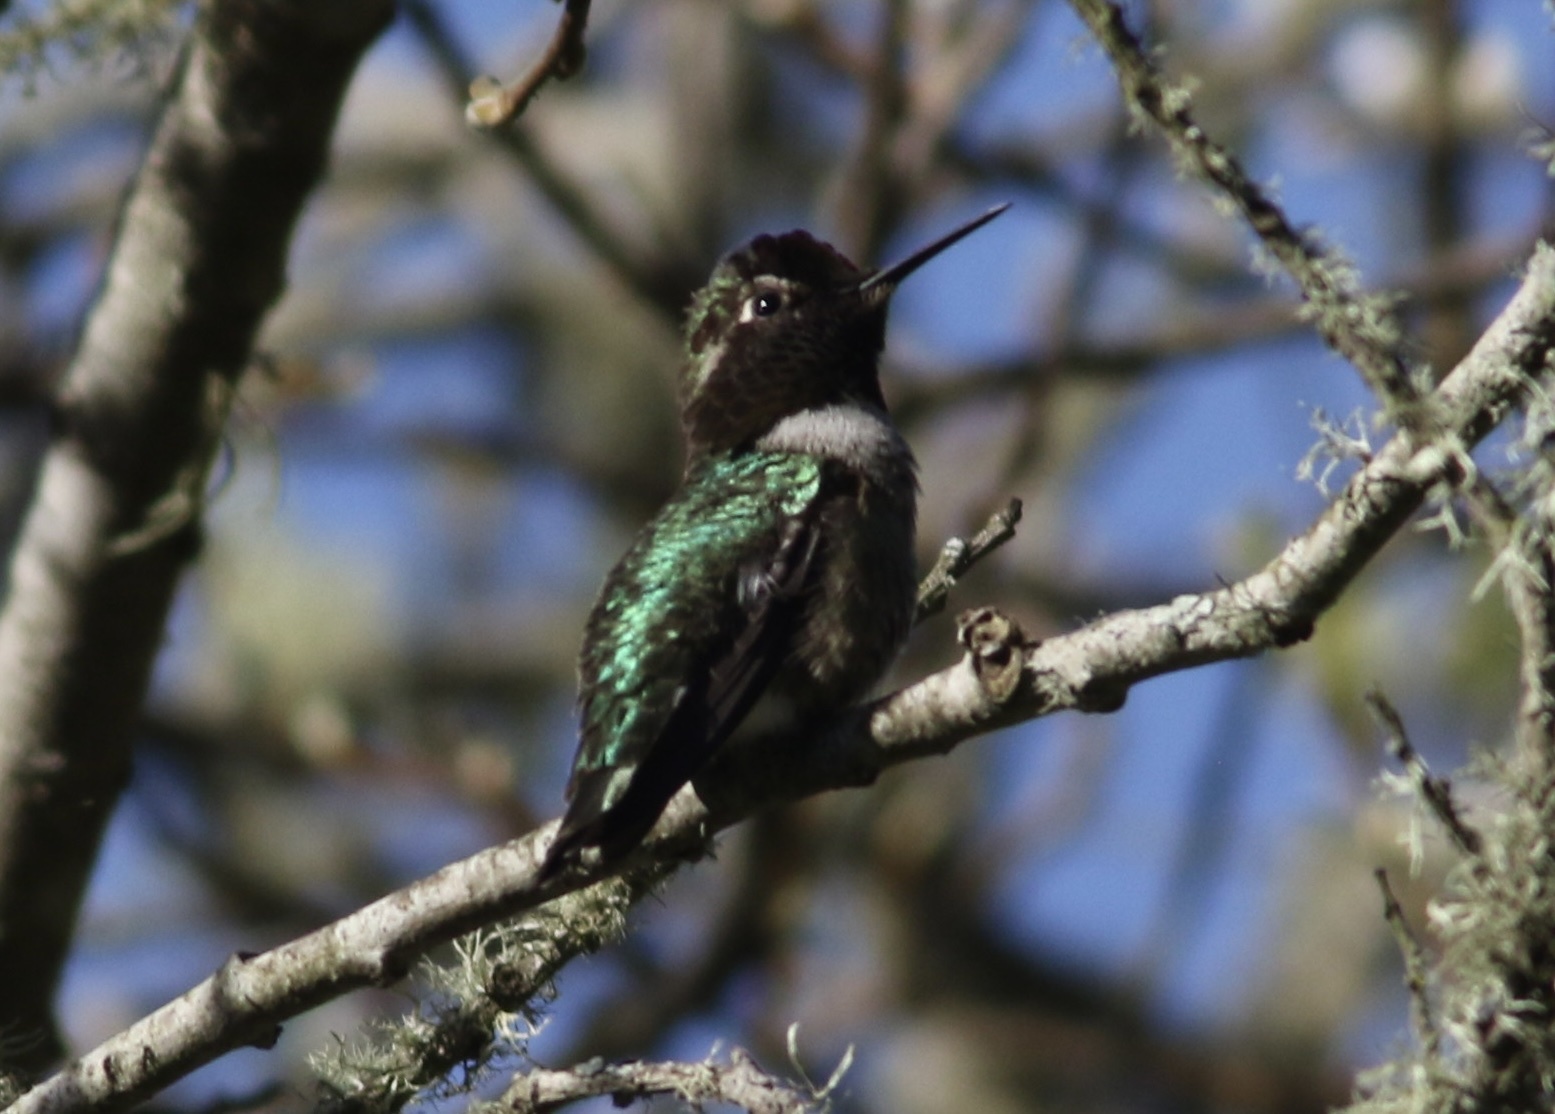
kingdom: Animalia
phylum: Chordata
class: Aves
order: Apodiformes
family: Trochilidae
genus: Calypte
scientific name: Calypte anna
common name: Anna's hummingbird
